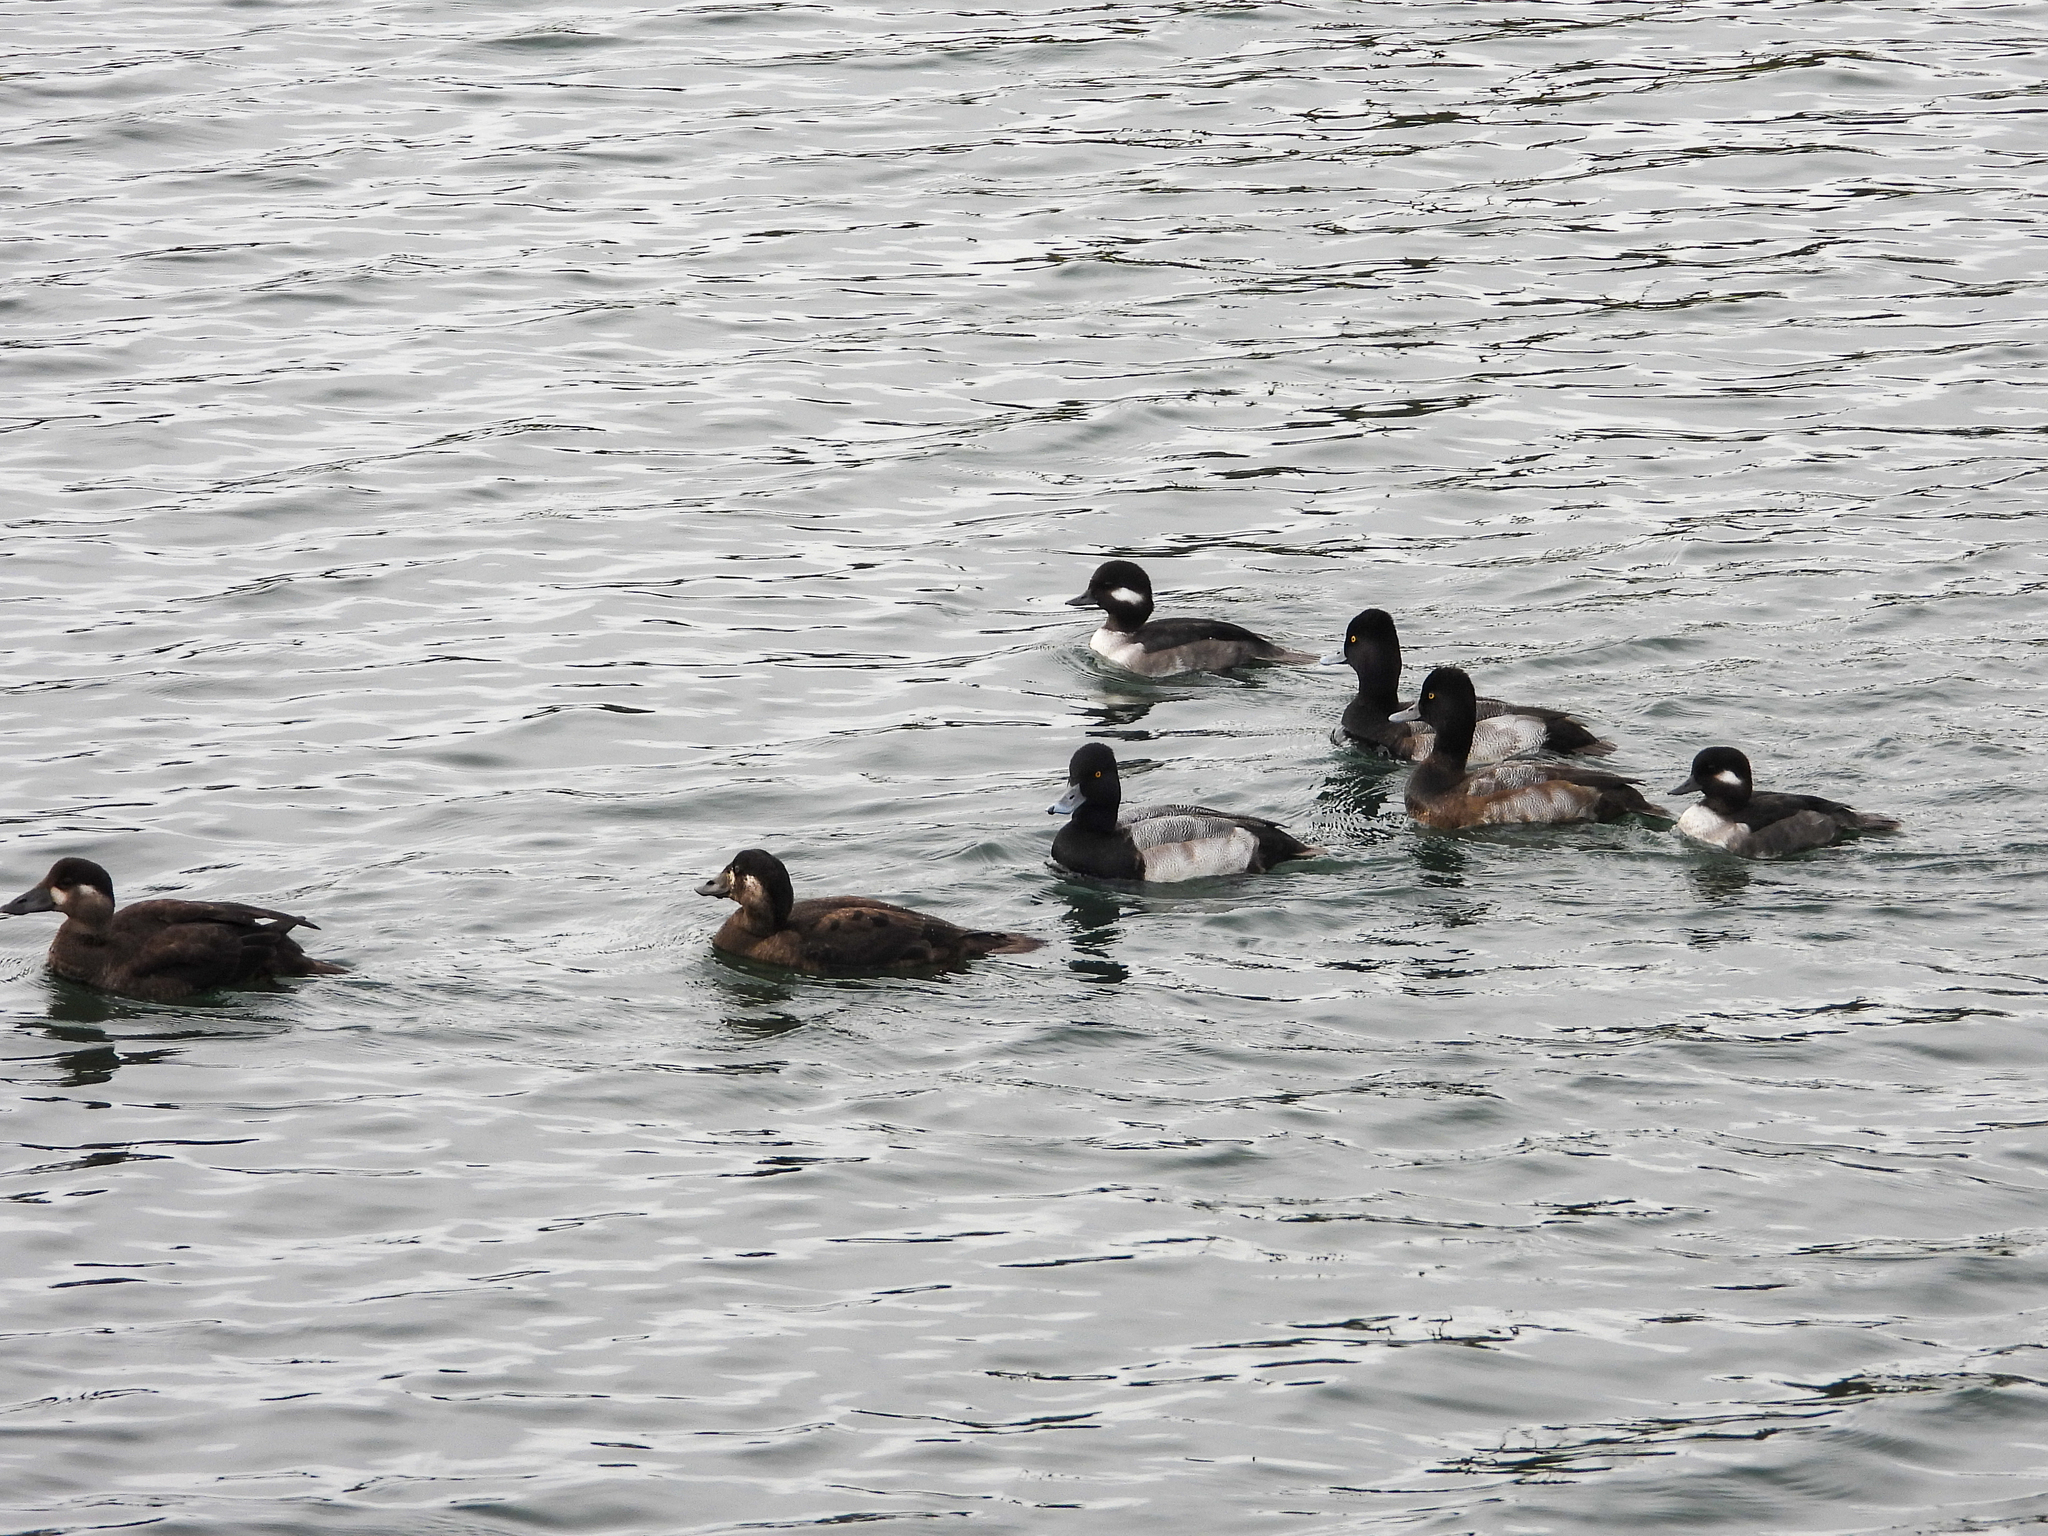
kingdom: Animalia
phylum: Chordata
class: Aves
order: Anseriformes
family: Anatidae
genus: Bucephala
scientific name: Bucephala albeola
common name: Bufflehead
